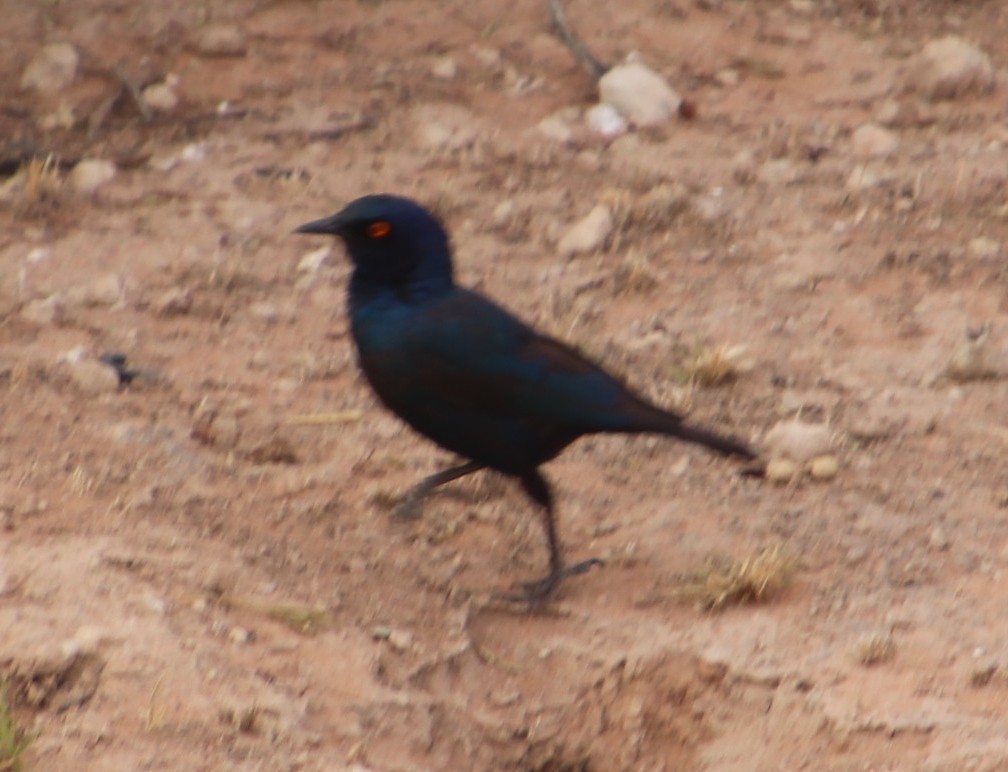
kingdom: Animalia
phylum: Chordata
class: Aves
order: Passeriformes
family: Sturnidae
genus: Lamprotornis
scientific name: Lamprotornis nitens
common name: Cape starling
